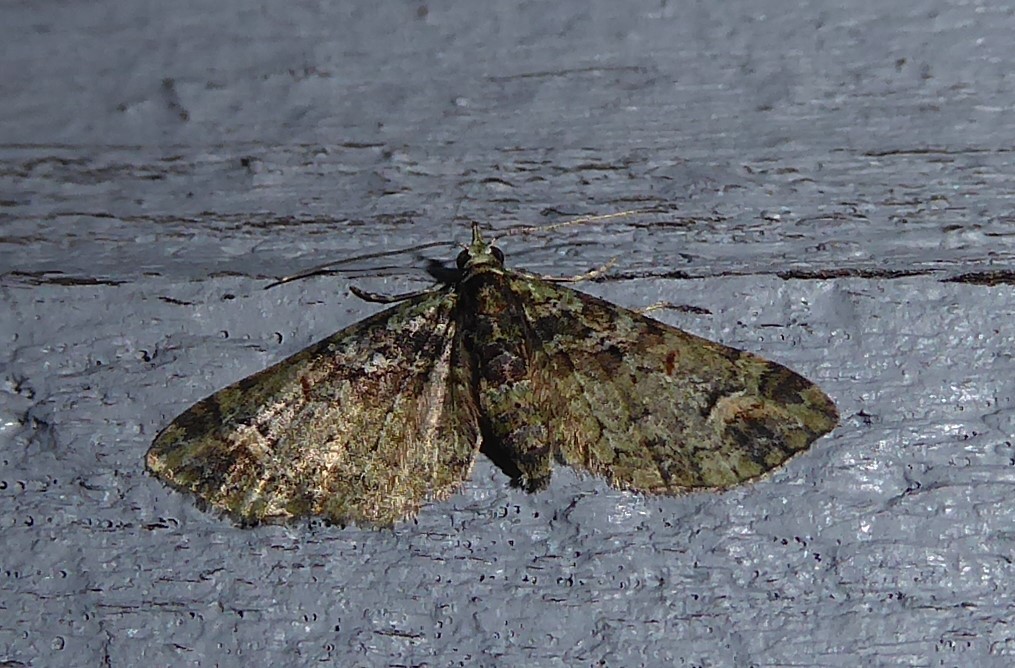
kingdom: Animalia
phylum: Arthropoda
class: Insecta
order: Lepidoptera
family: Geometridae
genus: Idaea
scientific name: Idaea mutanda
